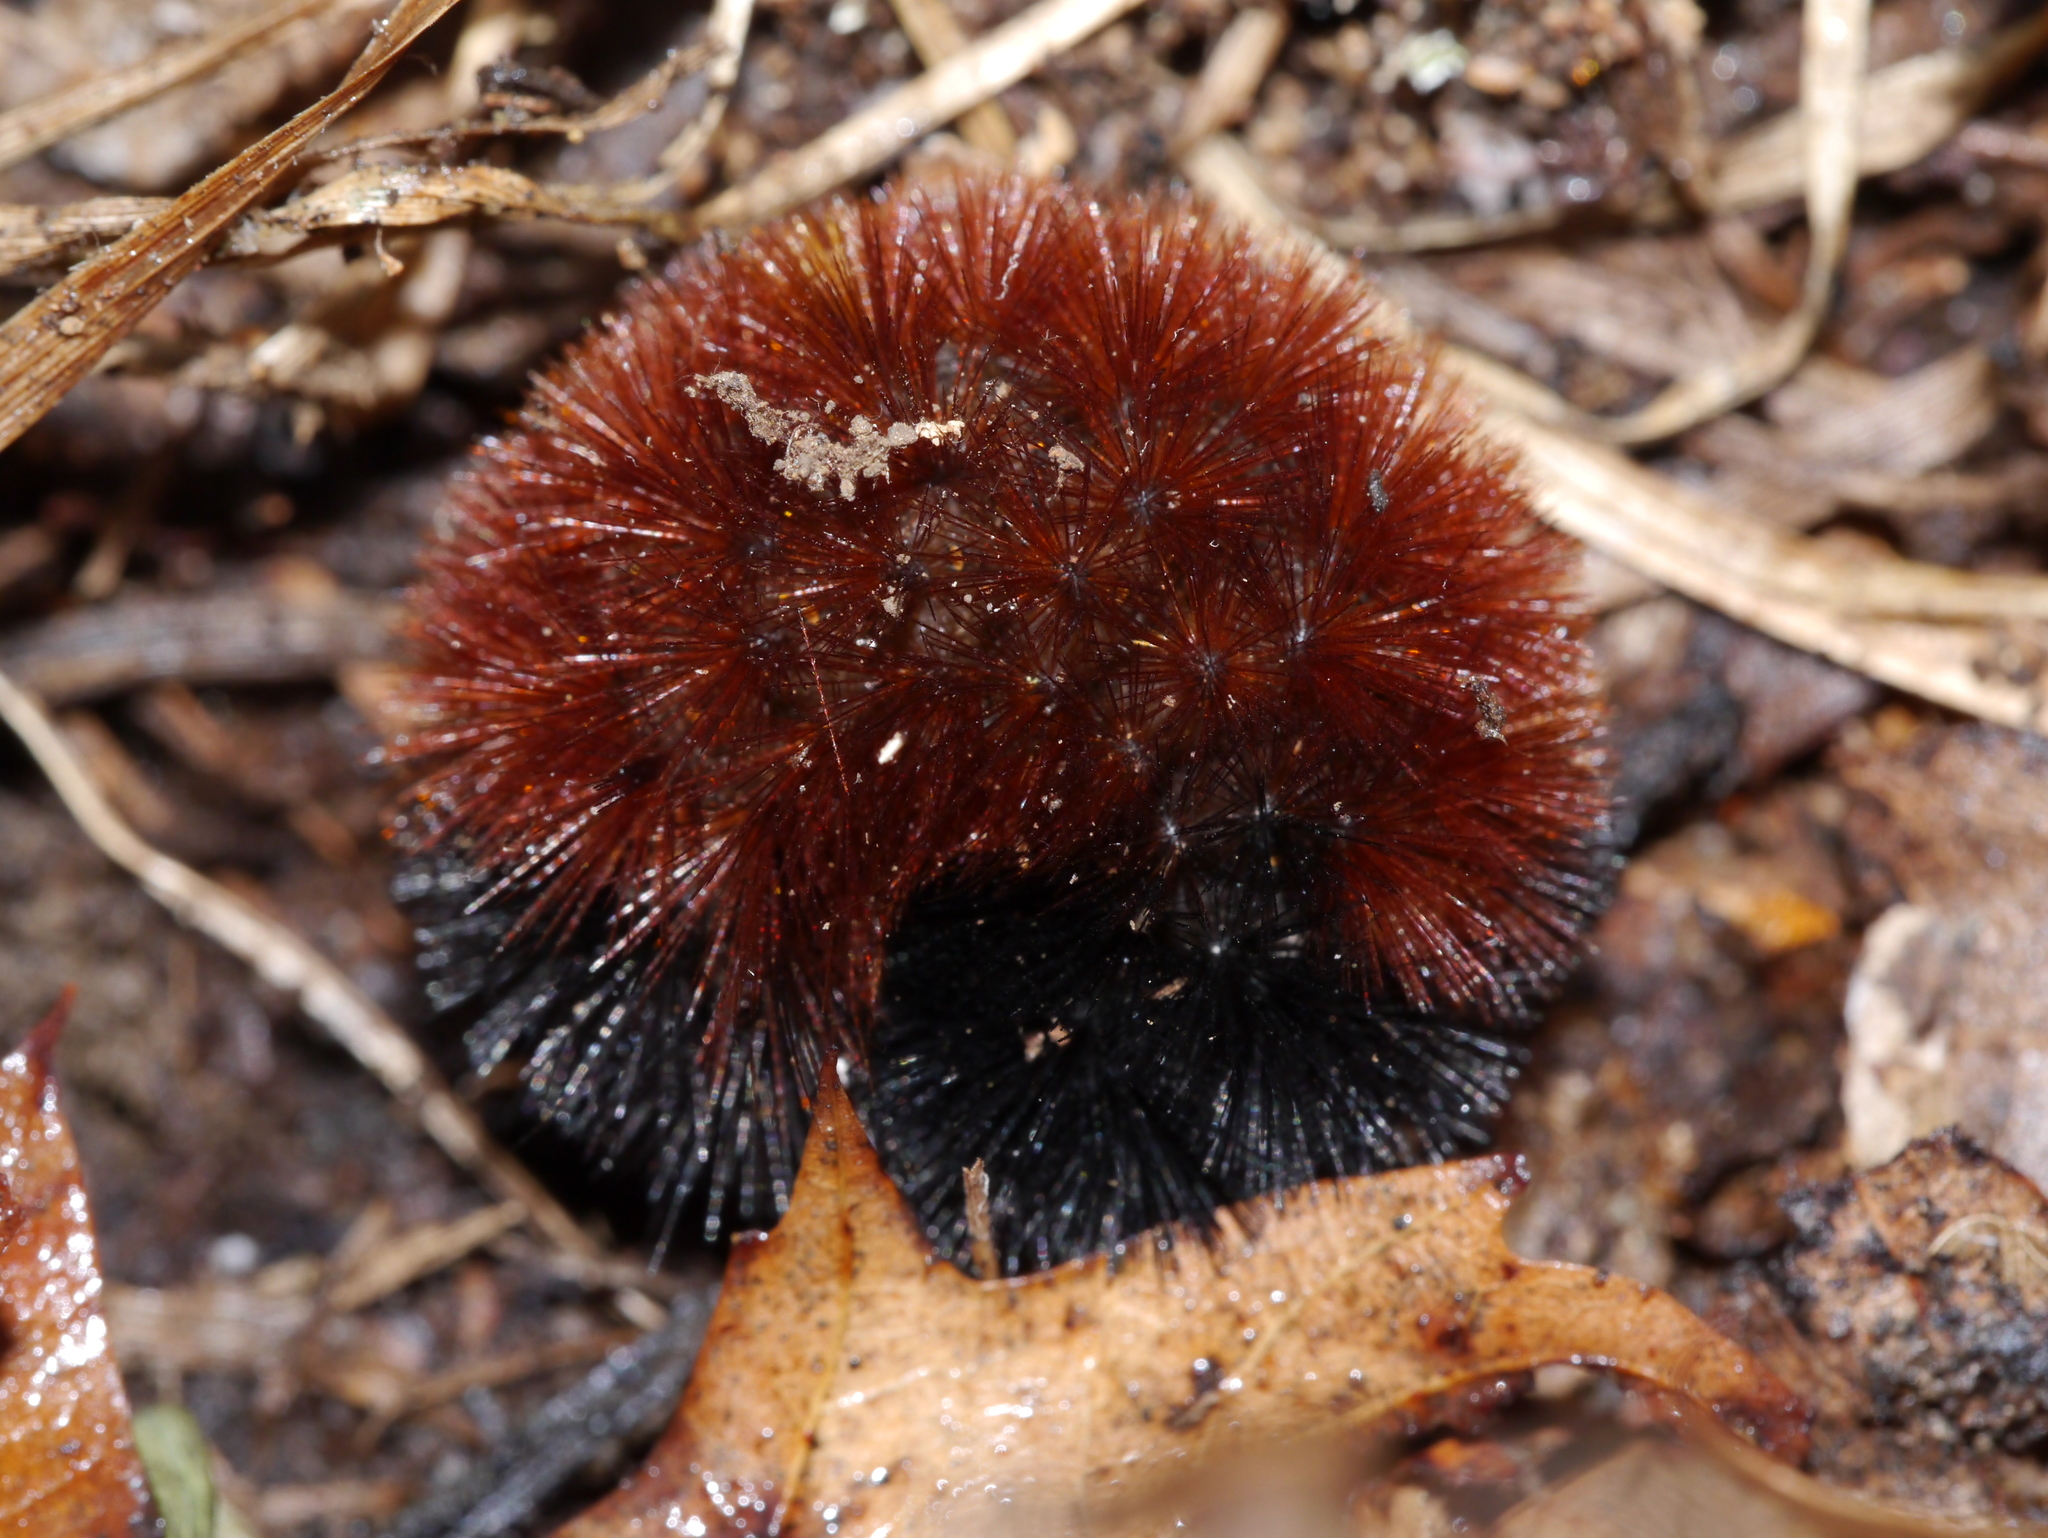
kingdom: Animalia
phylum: Arthropoda
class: Insecta
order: Lepidoptera
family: Erebidae
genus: Pyrrharctia
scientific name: Pyrrharctia isabella
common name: Isabella tiger moth
